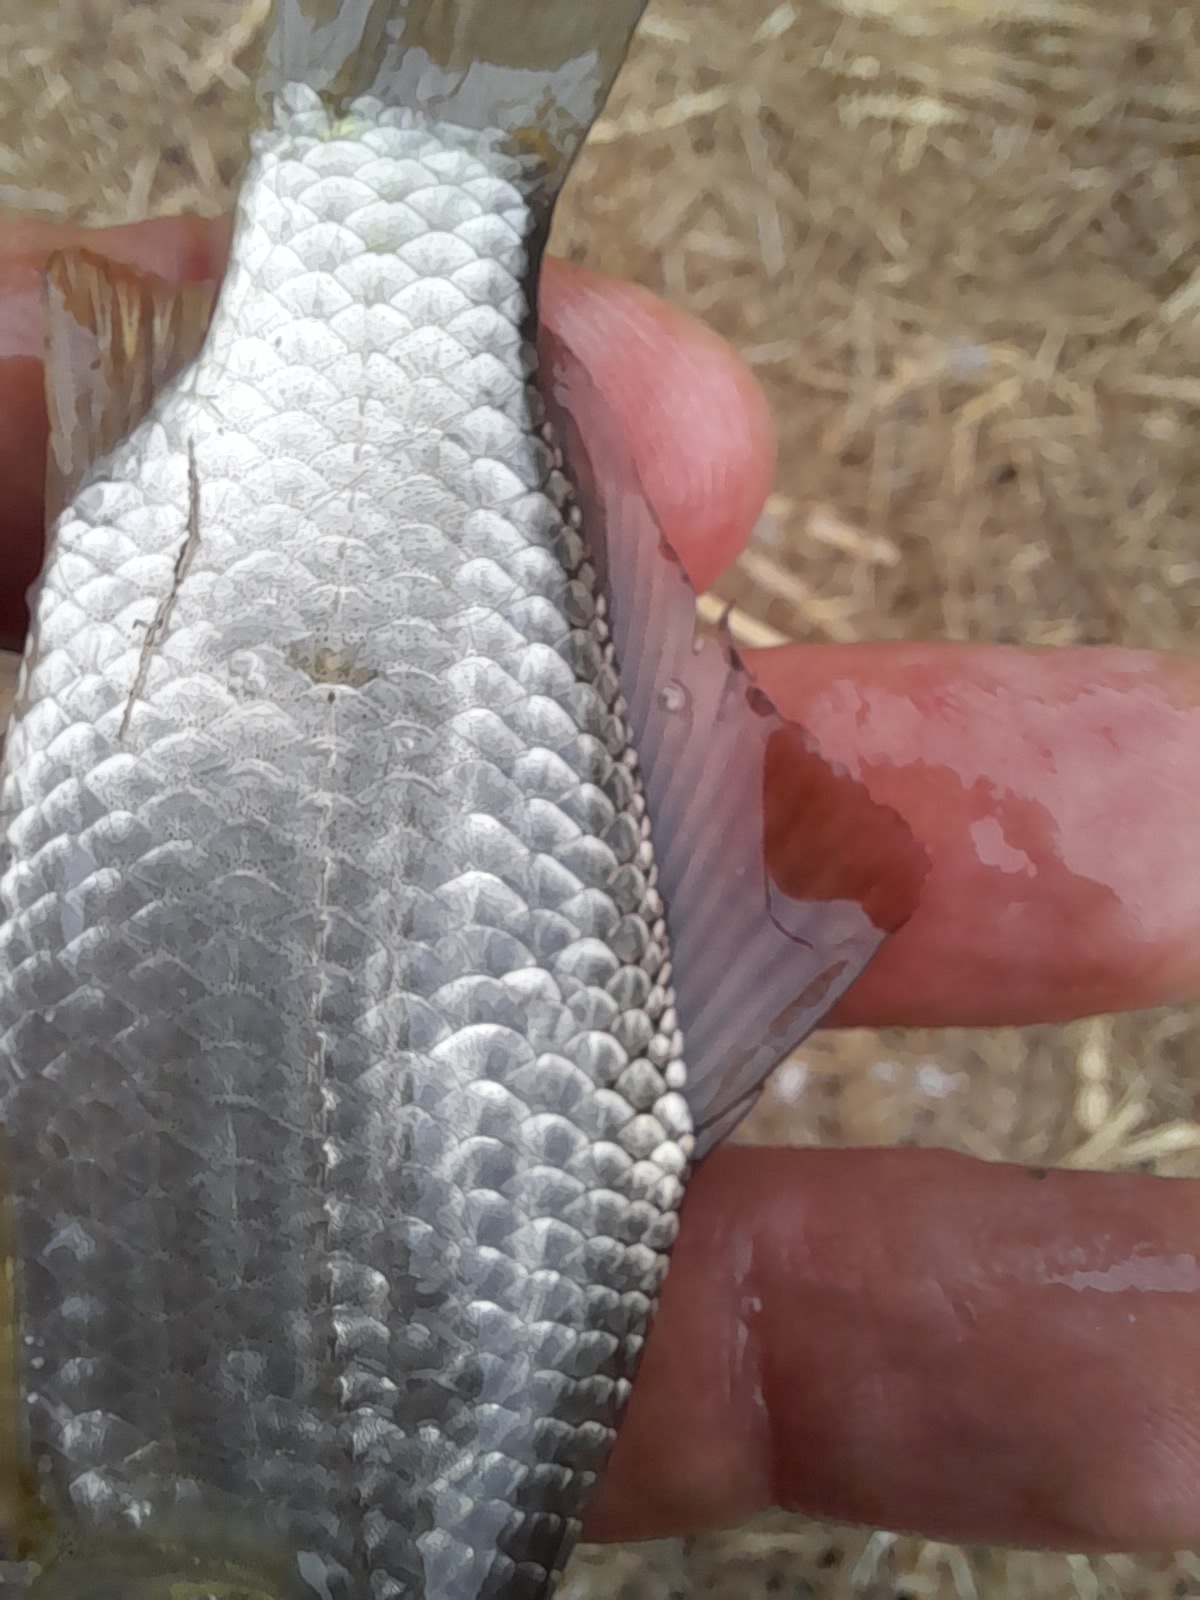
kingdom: Animalia
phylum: Chordata
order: Cypriniformes
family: Cyprinidae
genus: Carassius
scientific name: Carassius gibelio
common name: Prussian carp
